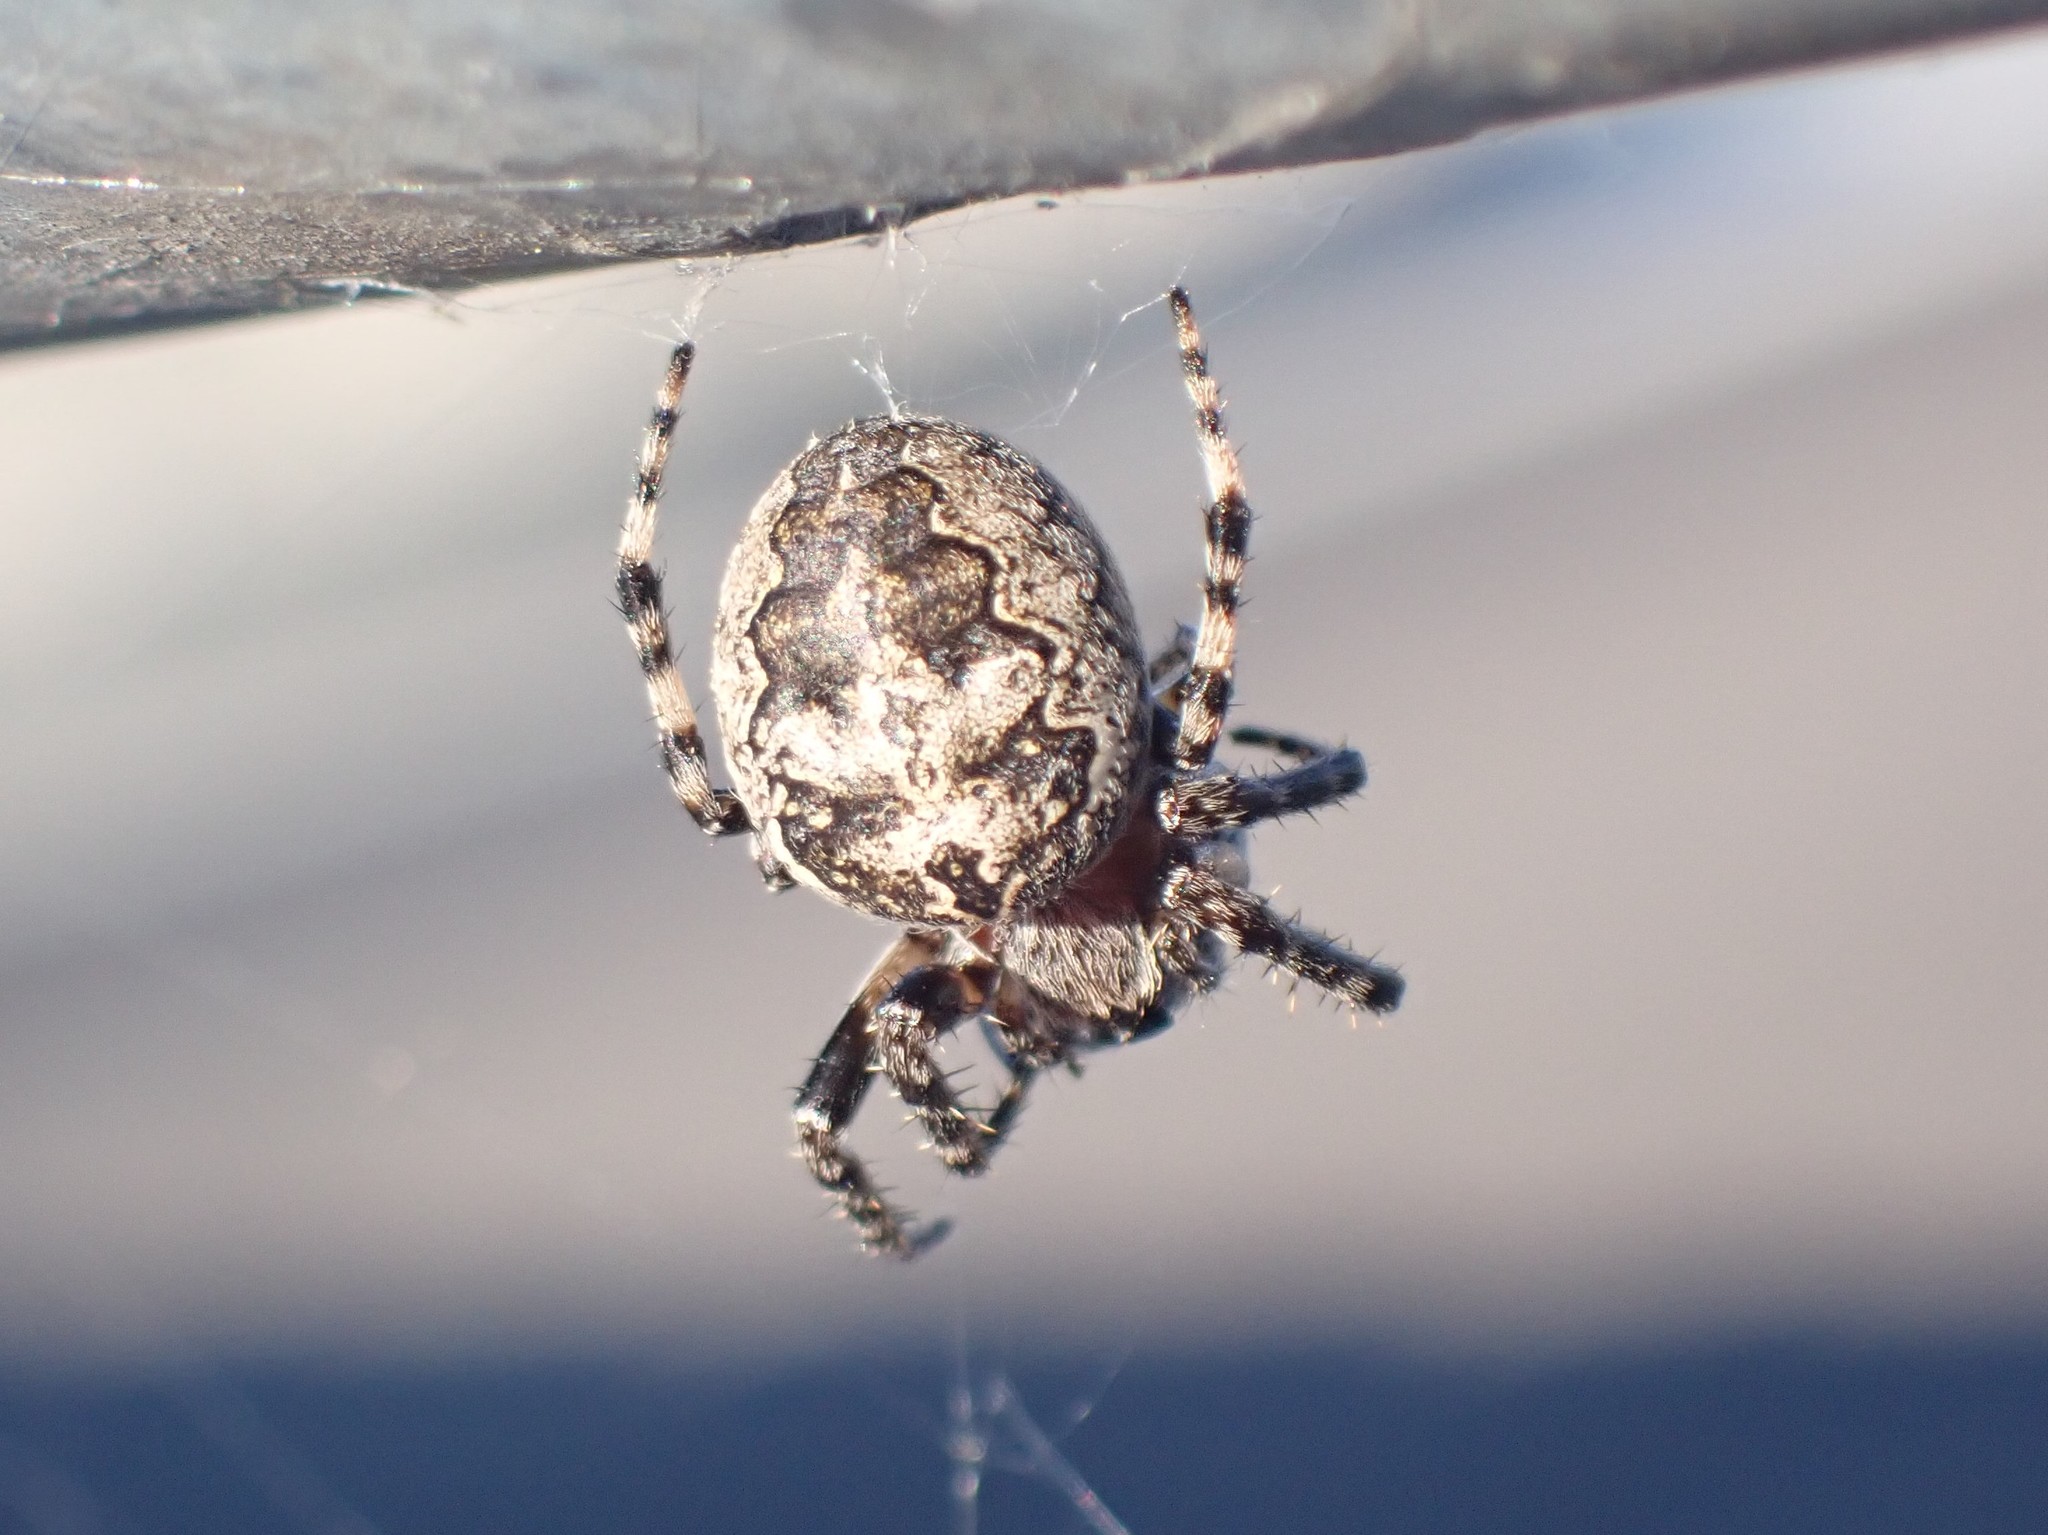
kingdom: Animalia
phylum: Arthropoda
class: Arachnida
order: Araneae
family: Araneidae
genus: Larinioides
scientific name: Larinioides sclopetarius
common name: Bridge orbweaver
